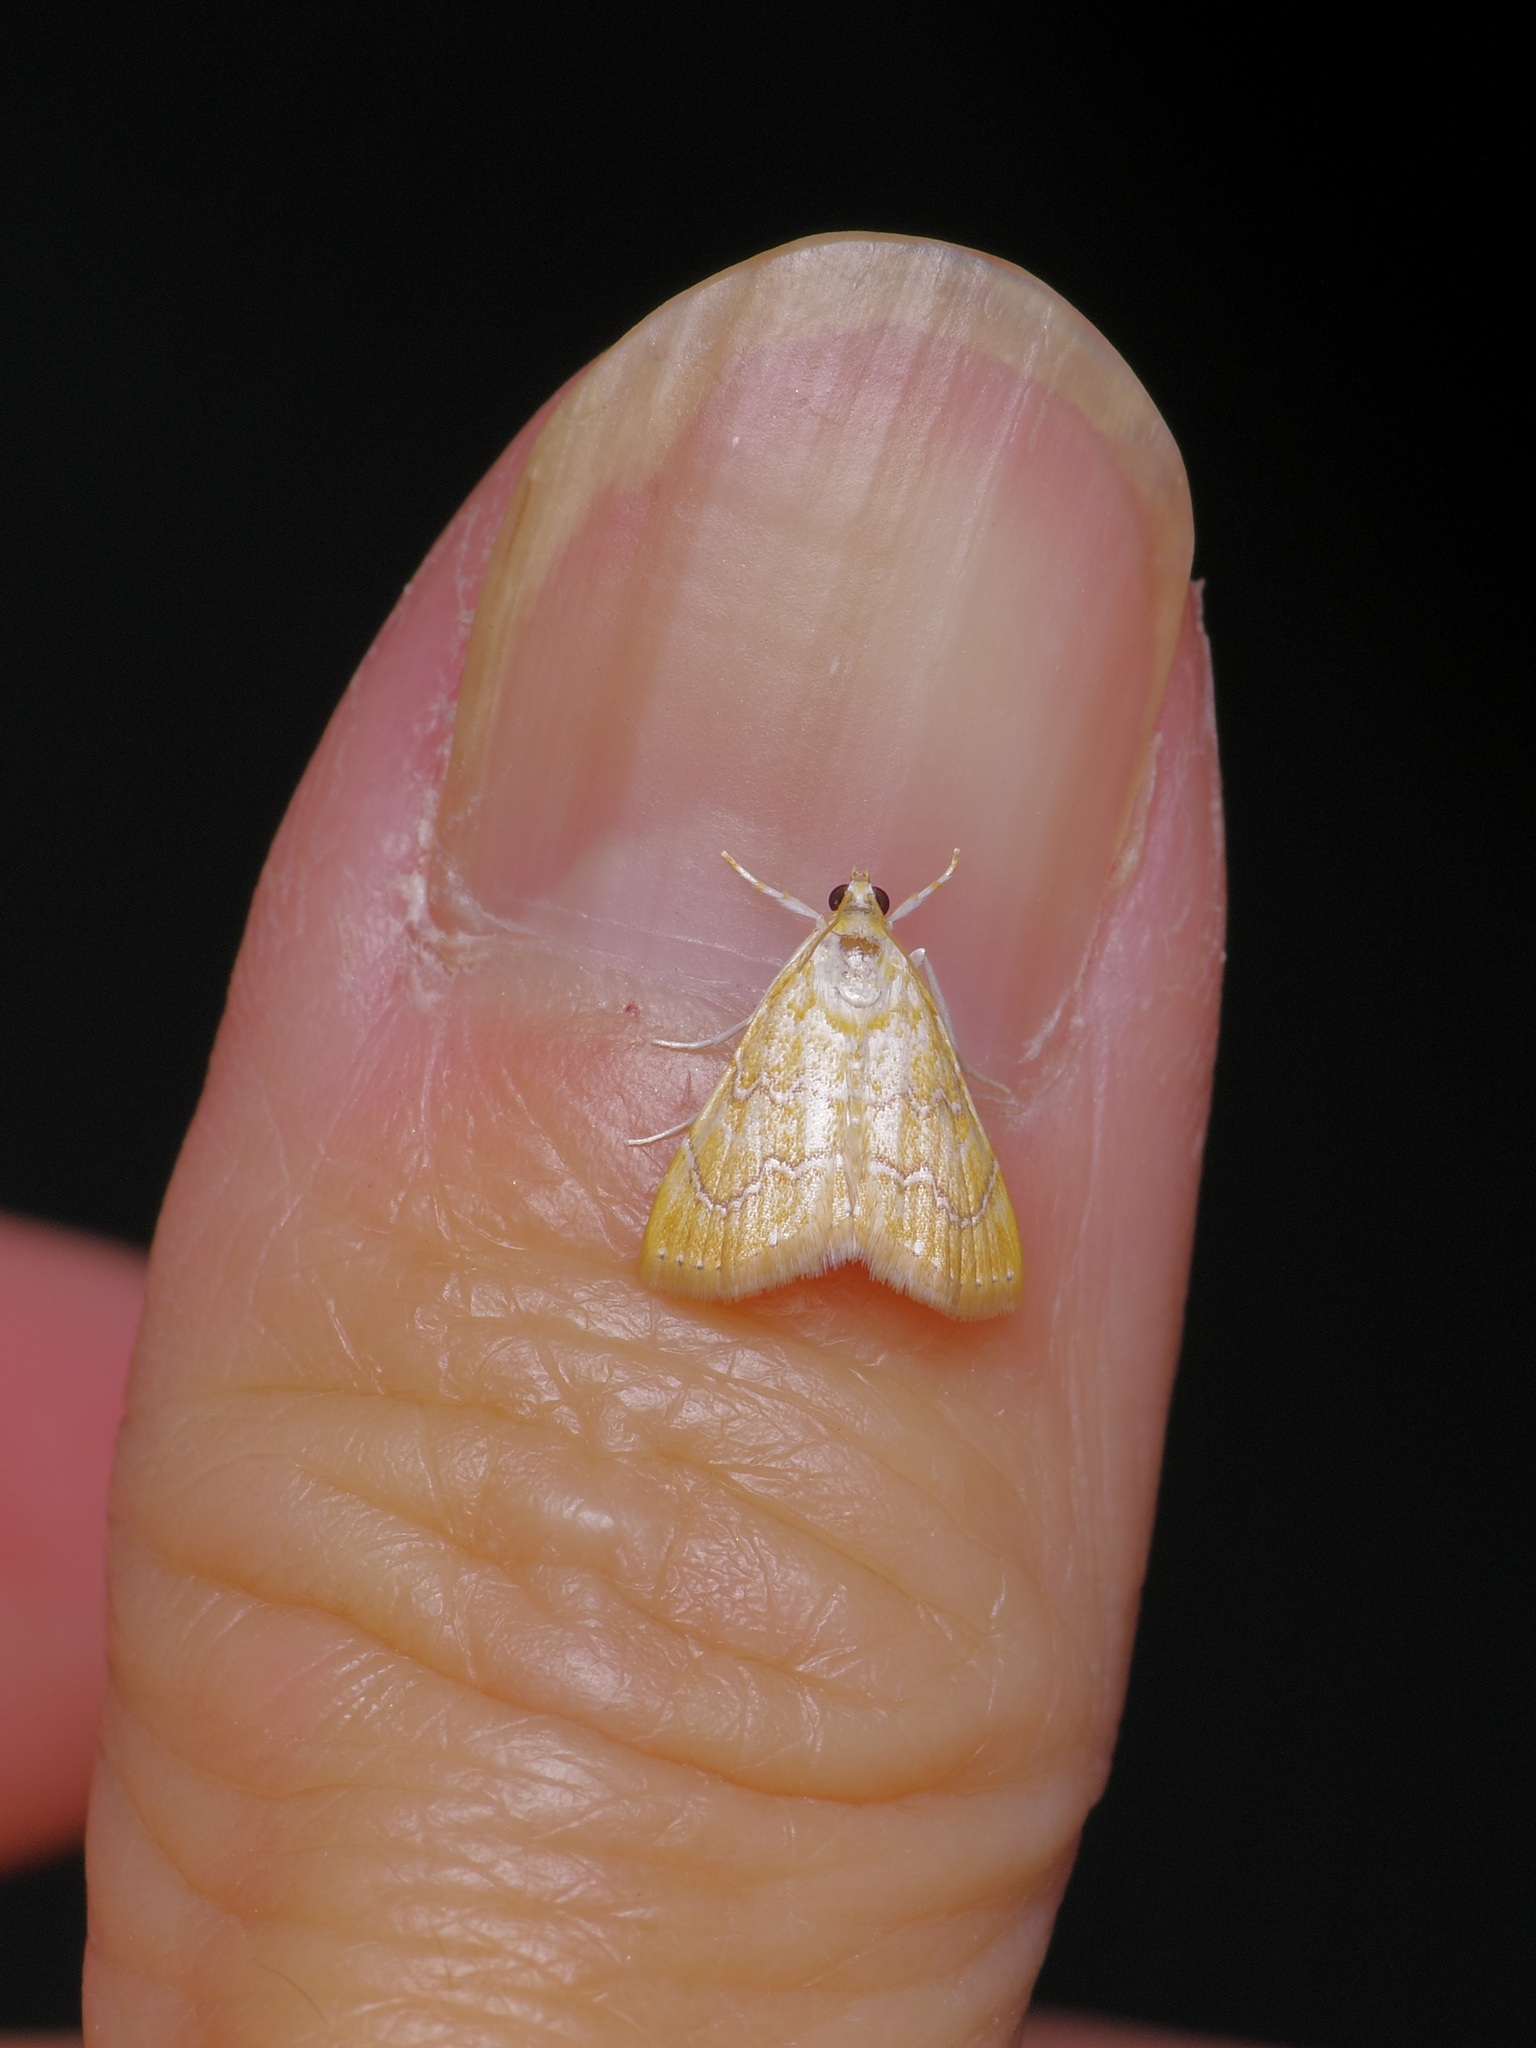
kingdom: Animalia
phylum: Arthropoda
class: Insecta
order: Lepidoptera
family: Crambidae
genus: Glaphyria
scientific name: Glaphyria sesquistrialis
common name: White-roped glaphyria
